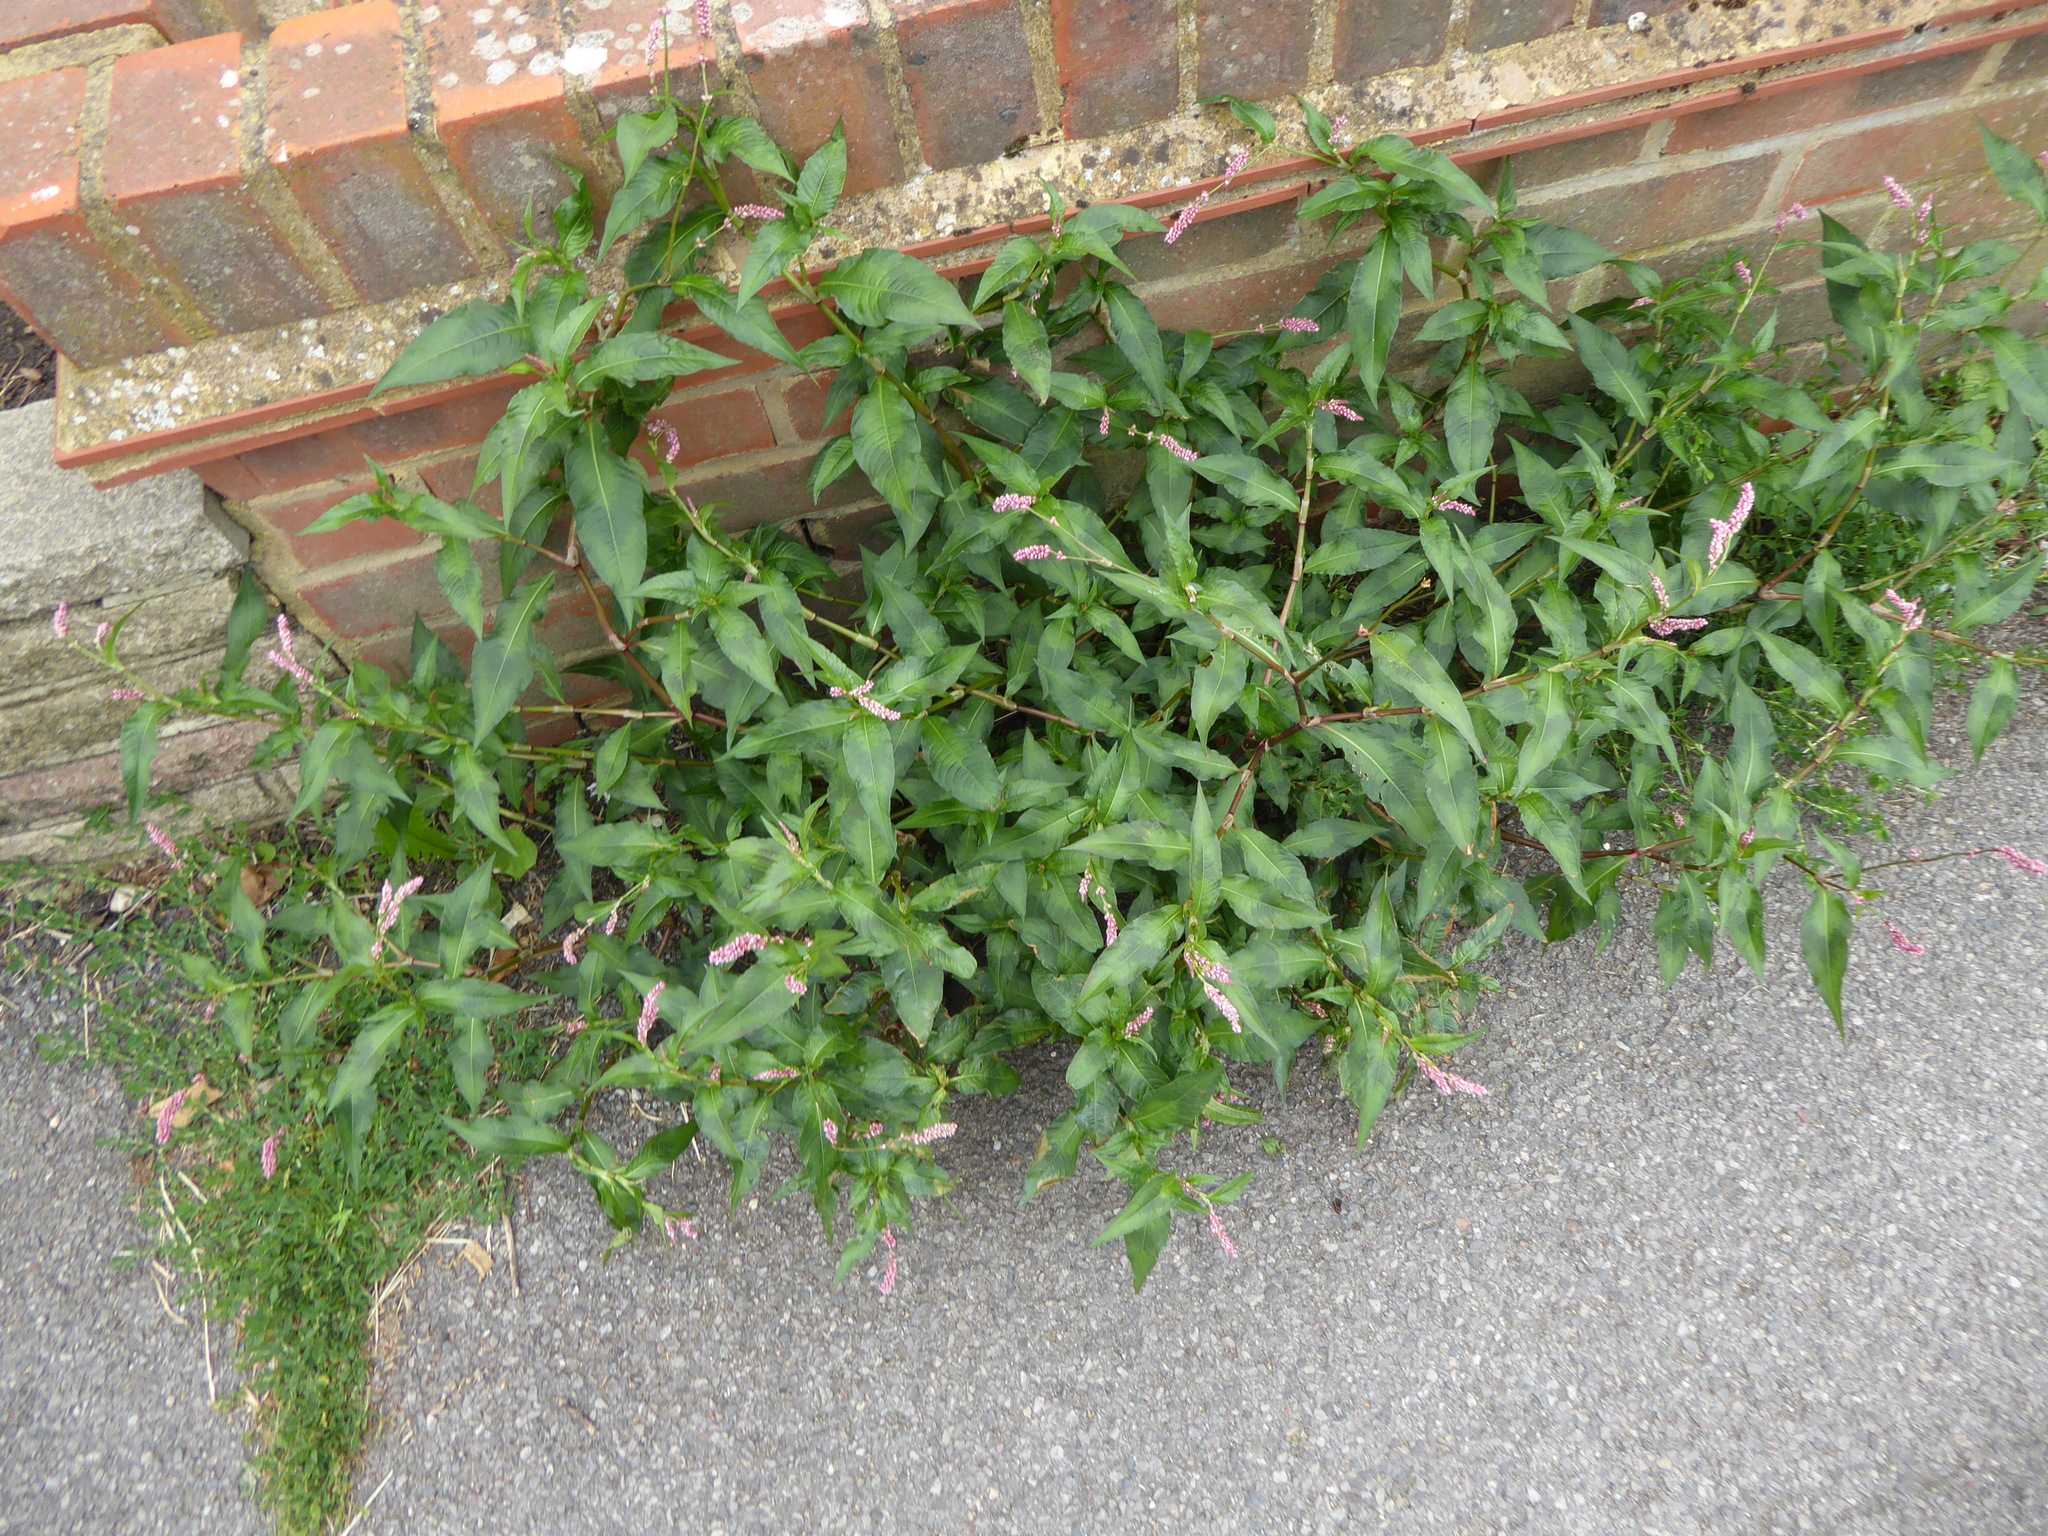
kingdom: Plantae
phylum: Tracheophyta
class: Magnoliopsida
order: Caryophyllales
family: Polygonaceae
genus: Persicaria
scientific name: Persicaria maculosa
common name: Redshank
